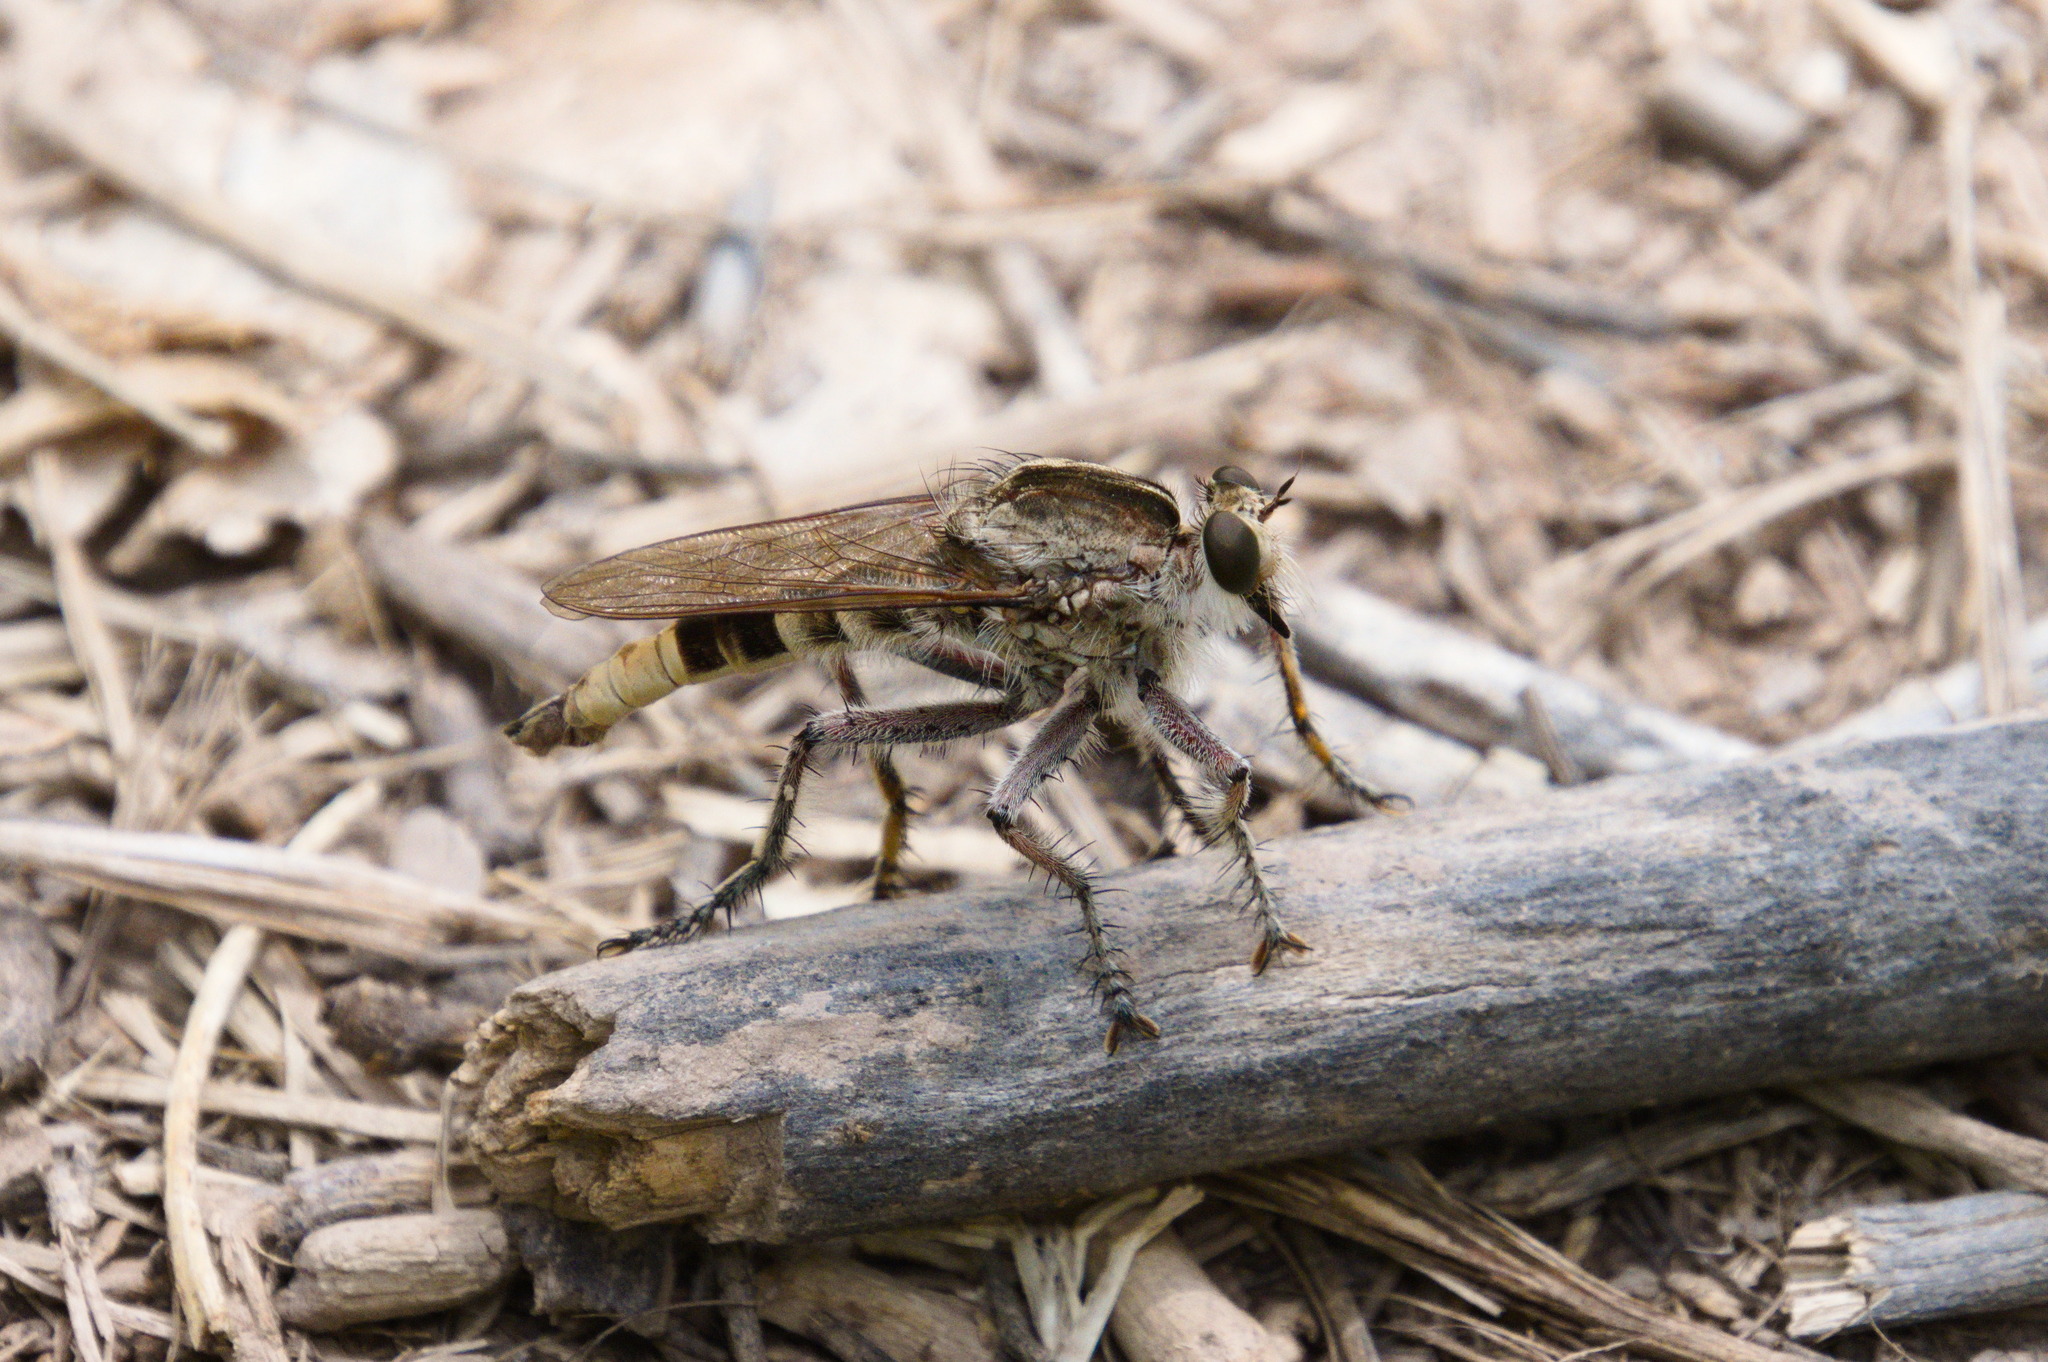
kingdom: Animalia
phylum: Arthropoda
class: Insecta
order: Diptera
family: Asilidae
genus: Triorla
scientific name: Triorla interrupta
